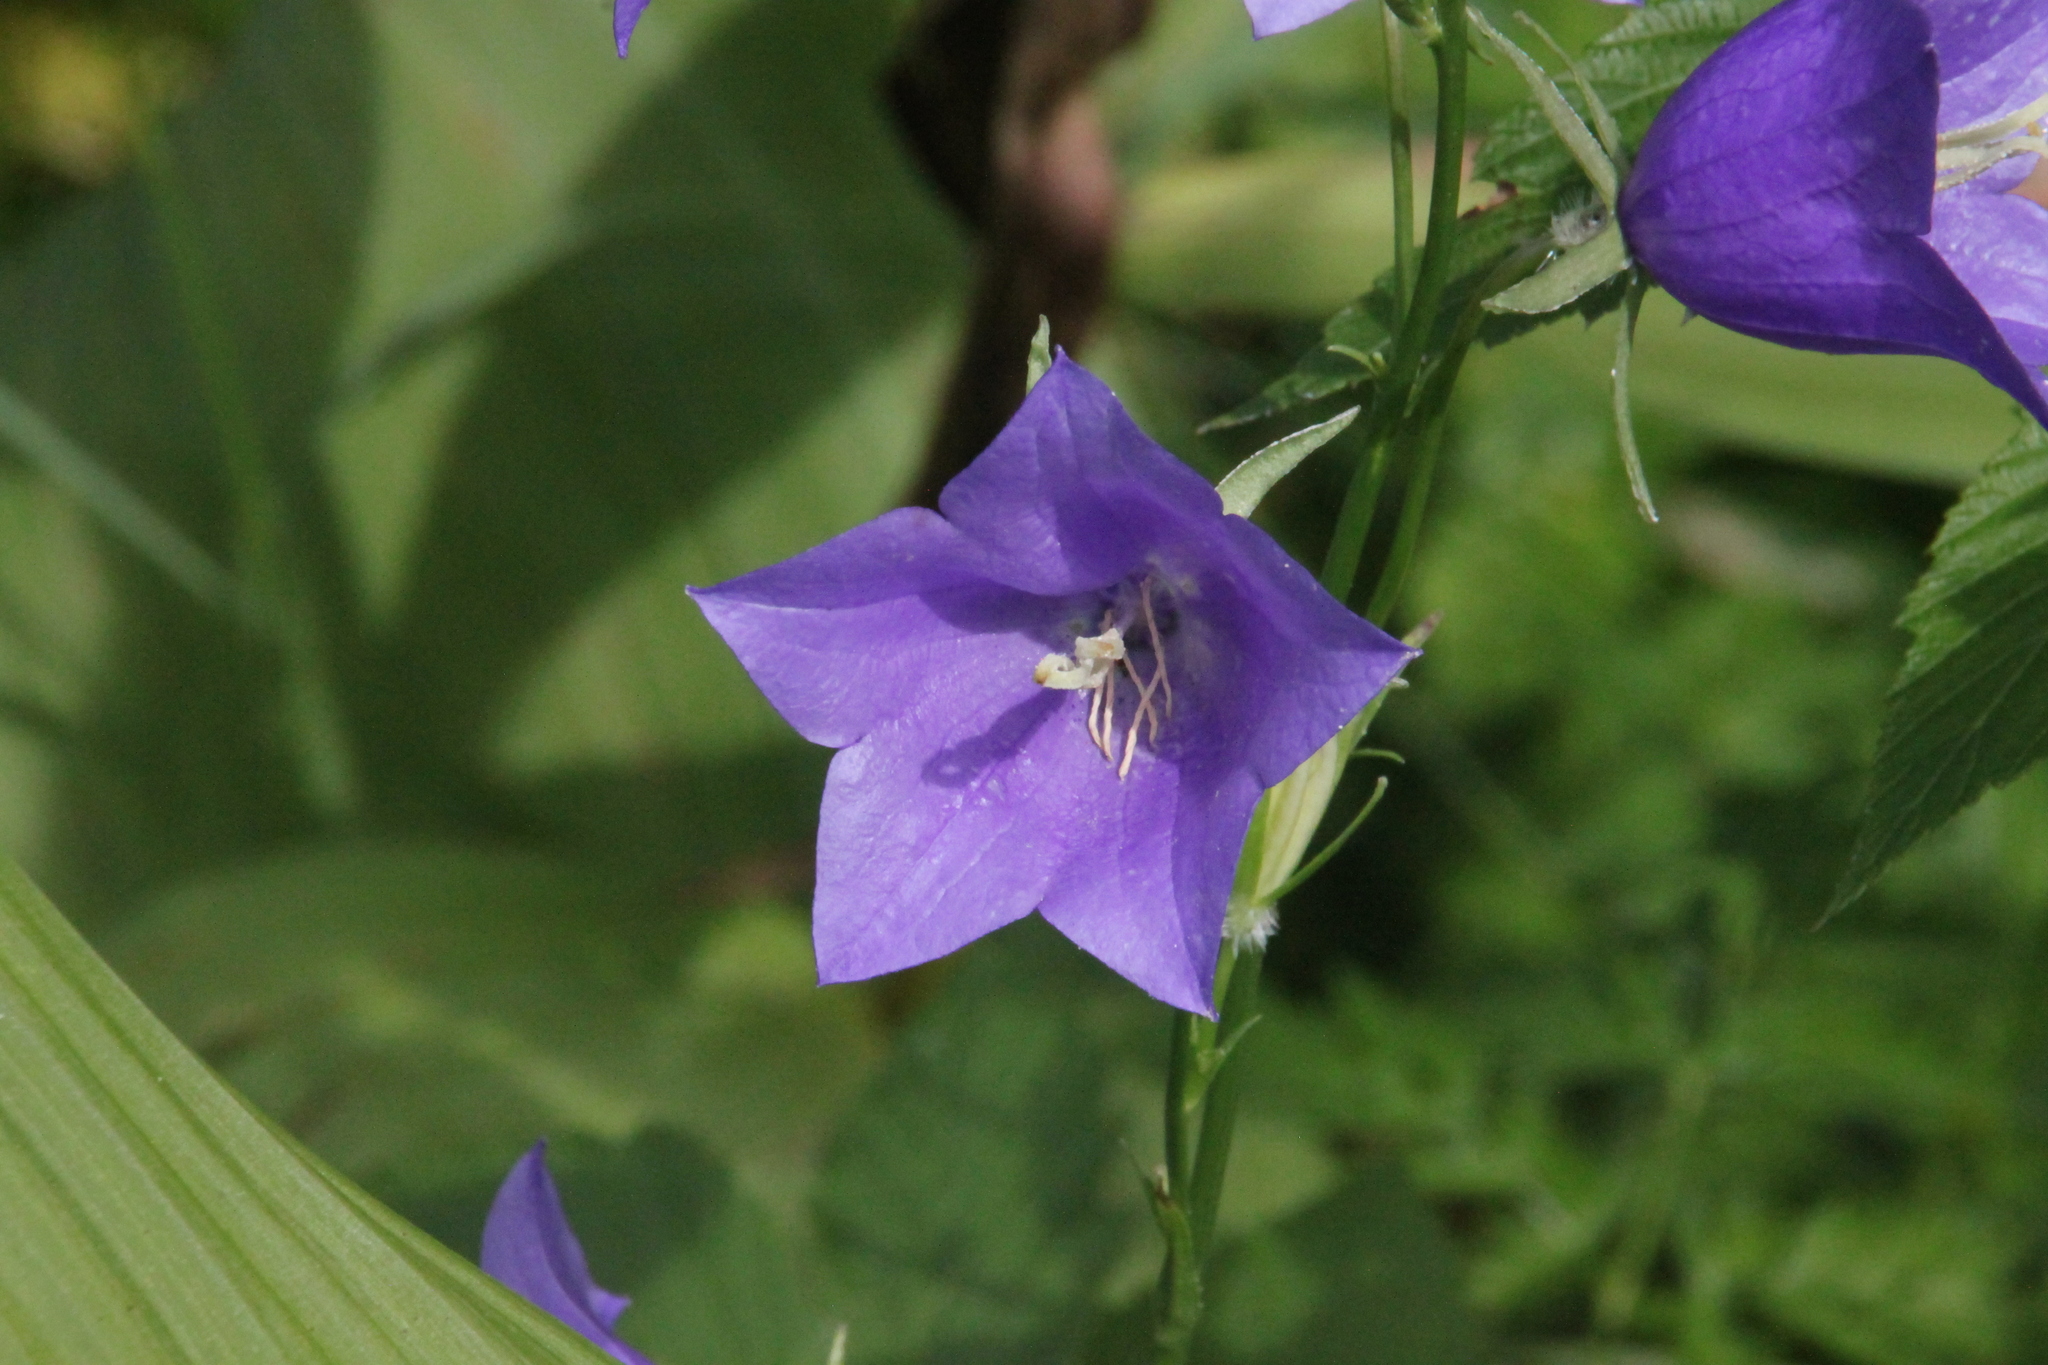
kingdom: Plantae
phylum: Tracheophyta
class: Magnoliopsida
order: Asterales
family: Campanulaceae
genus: Campanula
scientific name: Campanula persicifolia
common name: Peach-leaved bellflower
